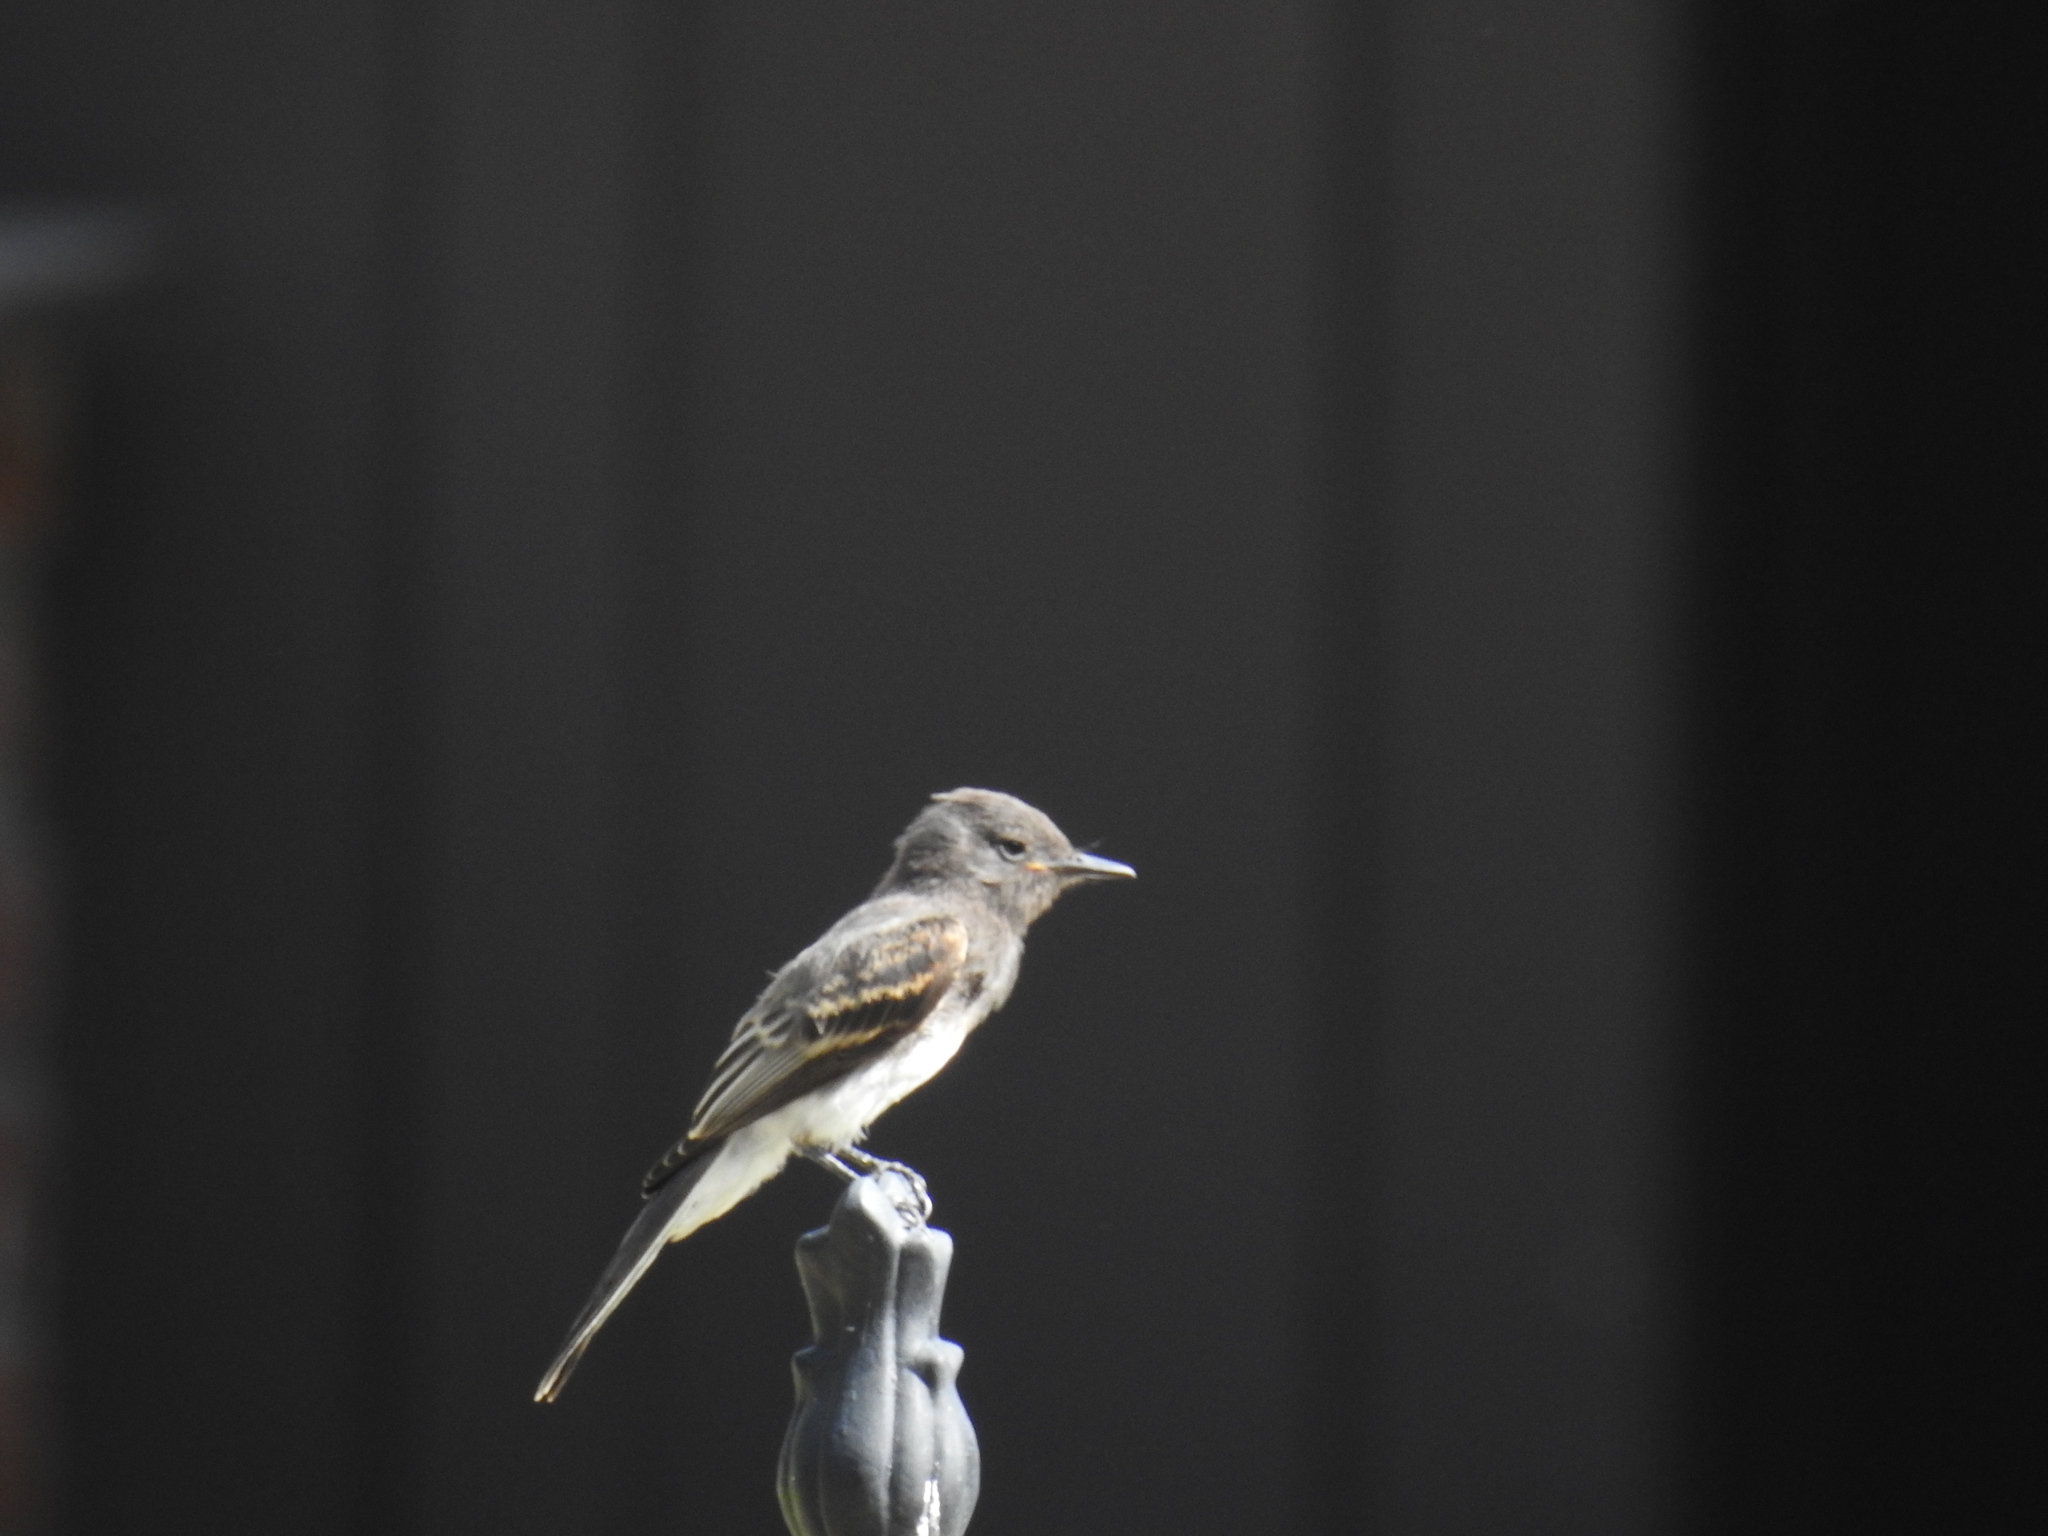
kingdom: Animalia
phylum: Chordata
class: Aves
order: Passeriformes
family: Tyrannidae
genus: Sayornis
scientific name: Sayornis nigricans
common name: Black phoebe
